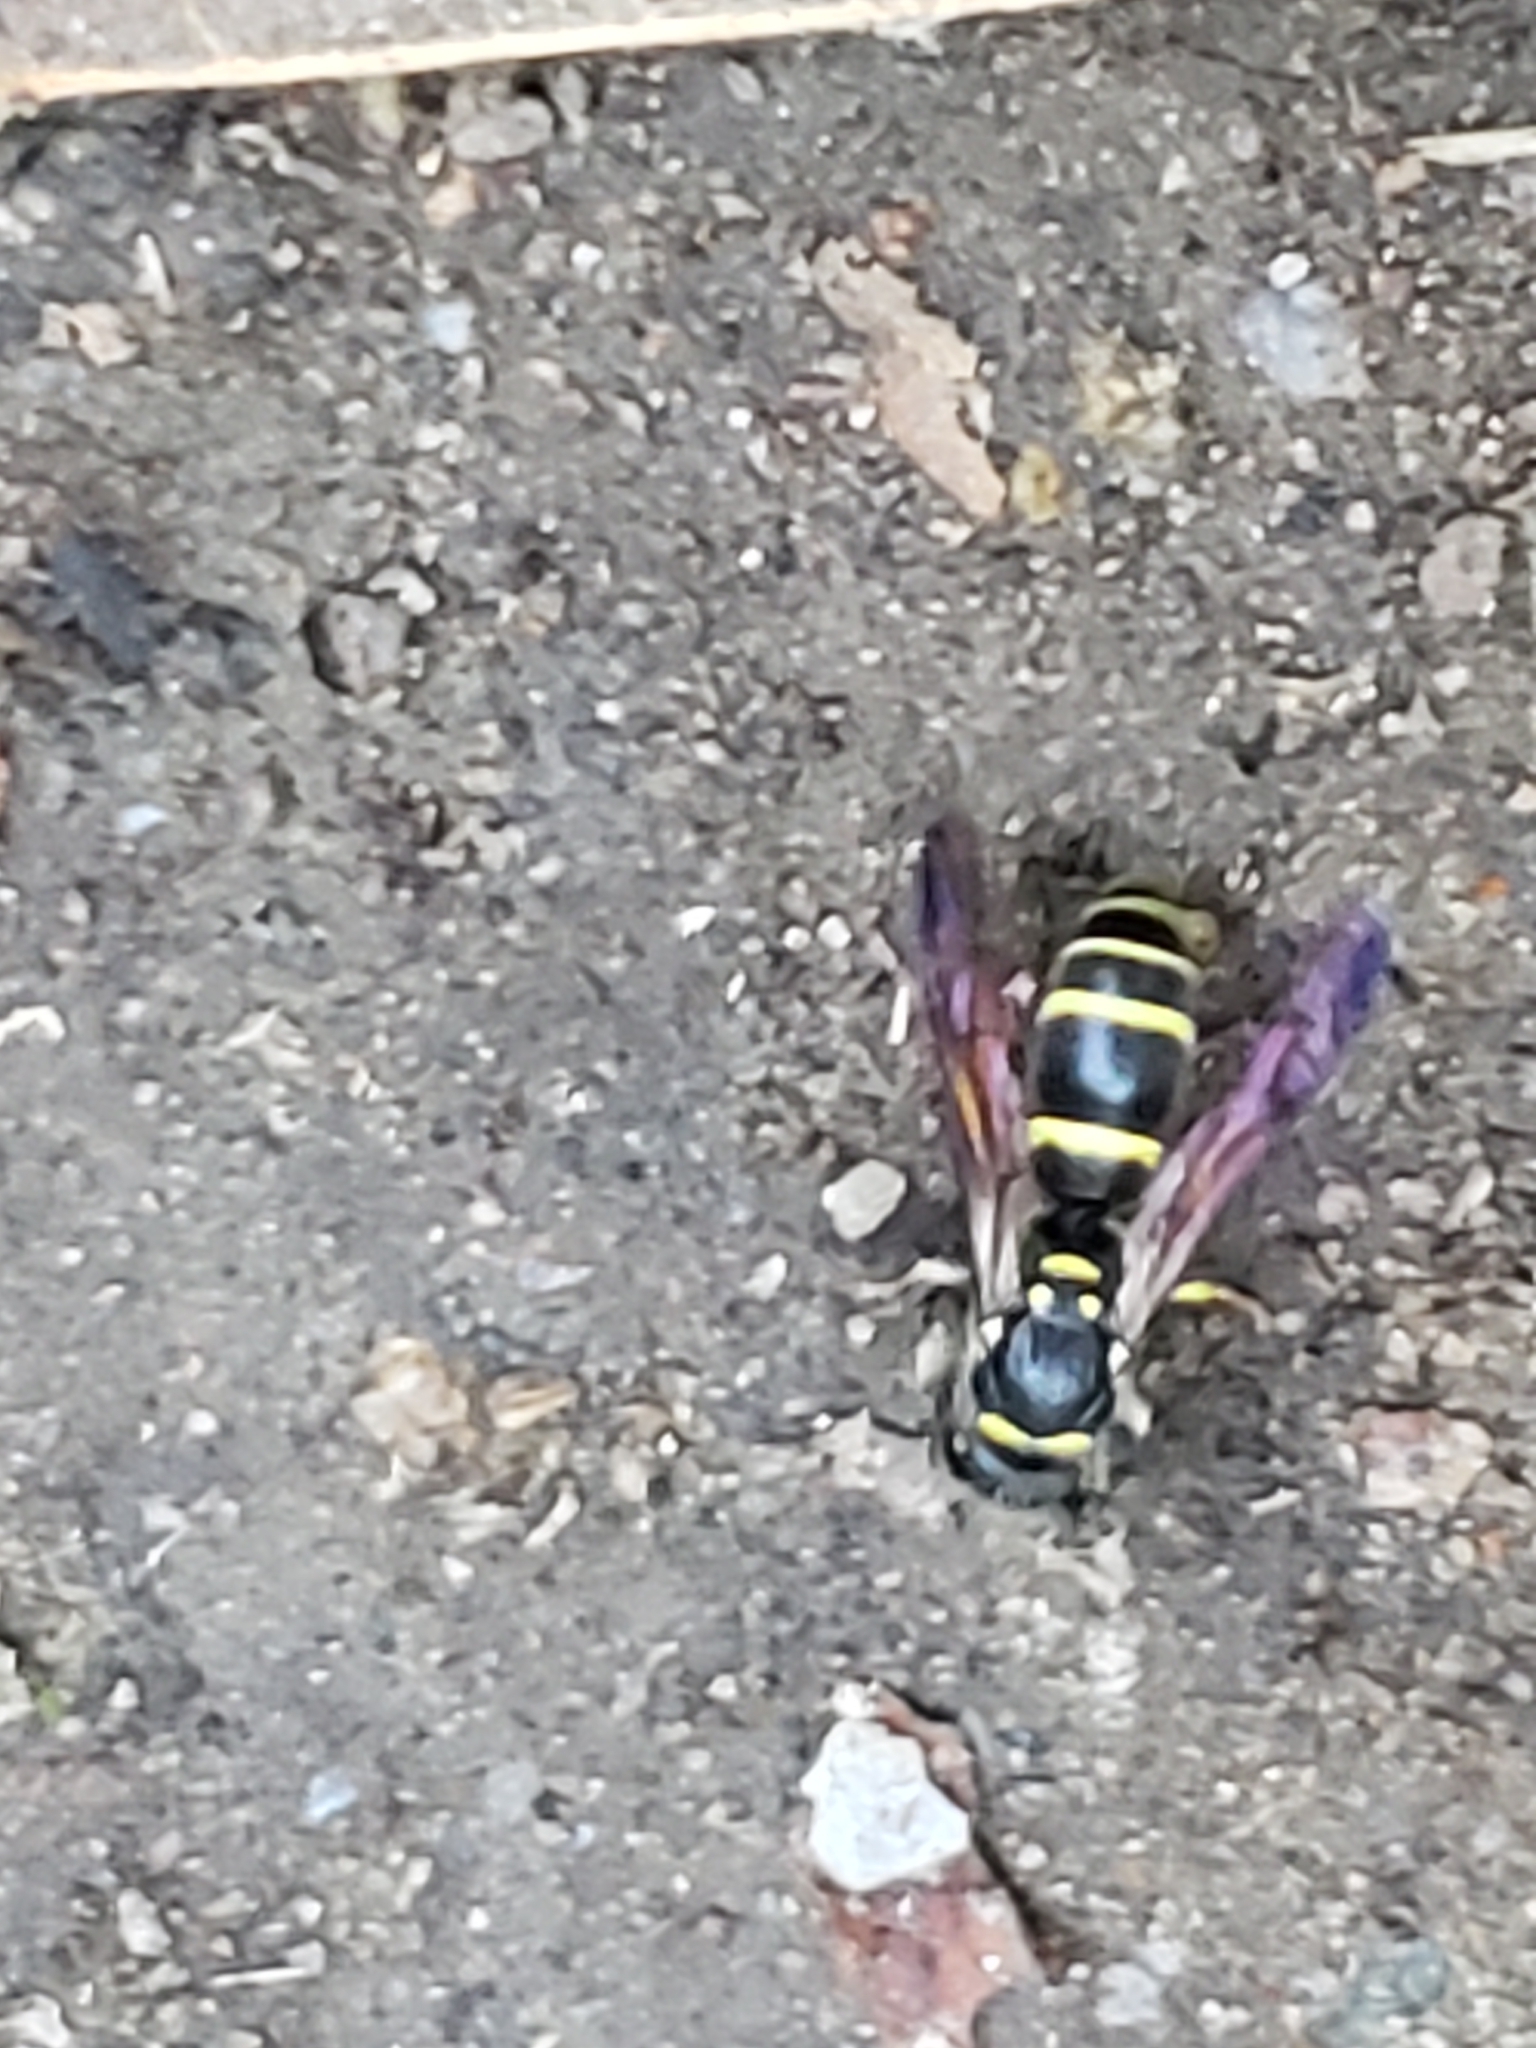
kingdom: Animalia
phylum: Arthropoda
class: Insecta
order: Hymenoptera
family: Vespidae
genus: Ancistrocerus
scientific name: Ancistrocerus adiabatus
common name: Bramble mason wasp
